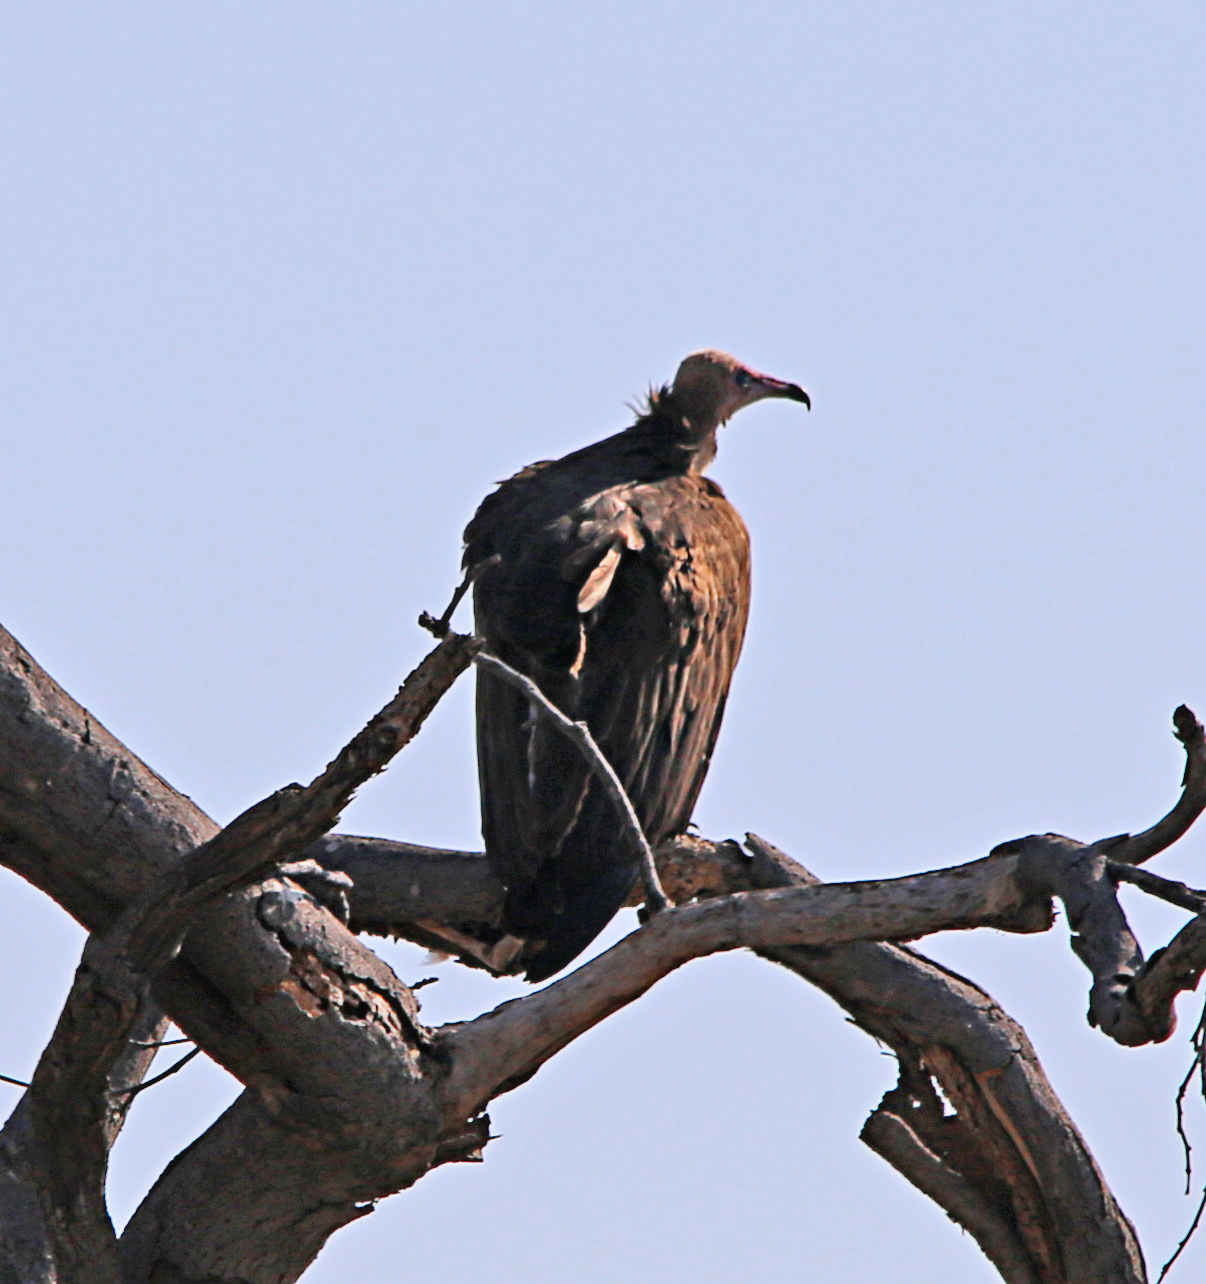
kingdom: Animalia
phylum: Chordata
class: Aves
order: Accipitriformes
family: Accipitridae
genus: Necrosyrtes
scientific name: Necrosyrtes monachus
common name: Hooded vulture
